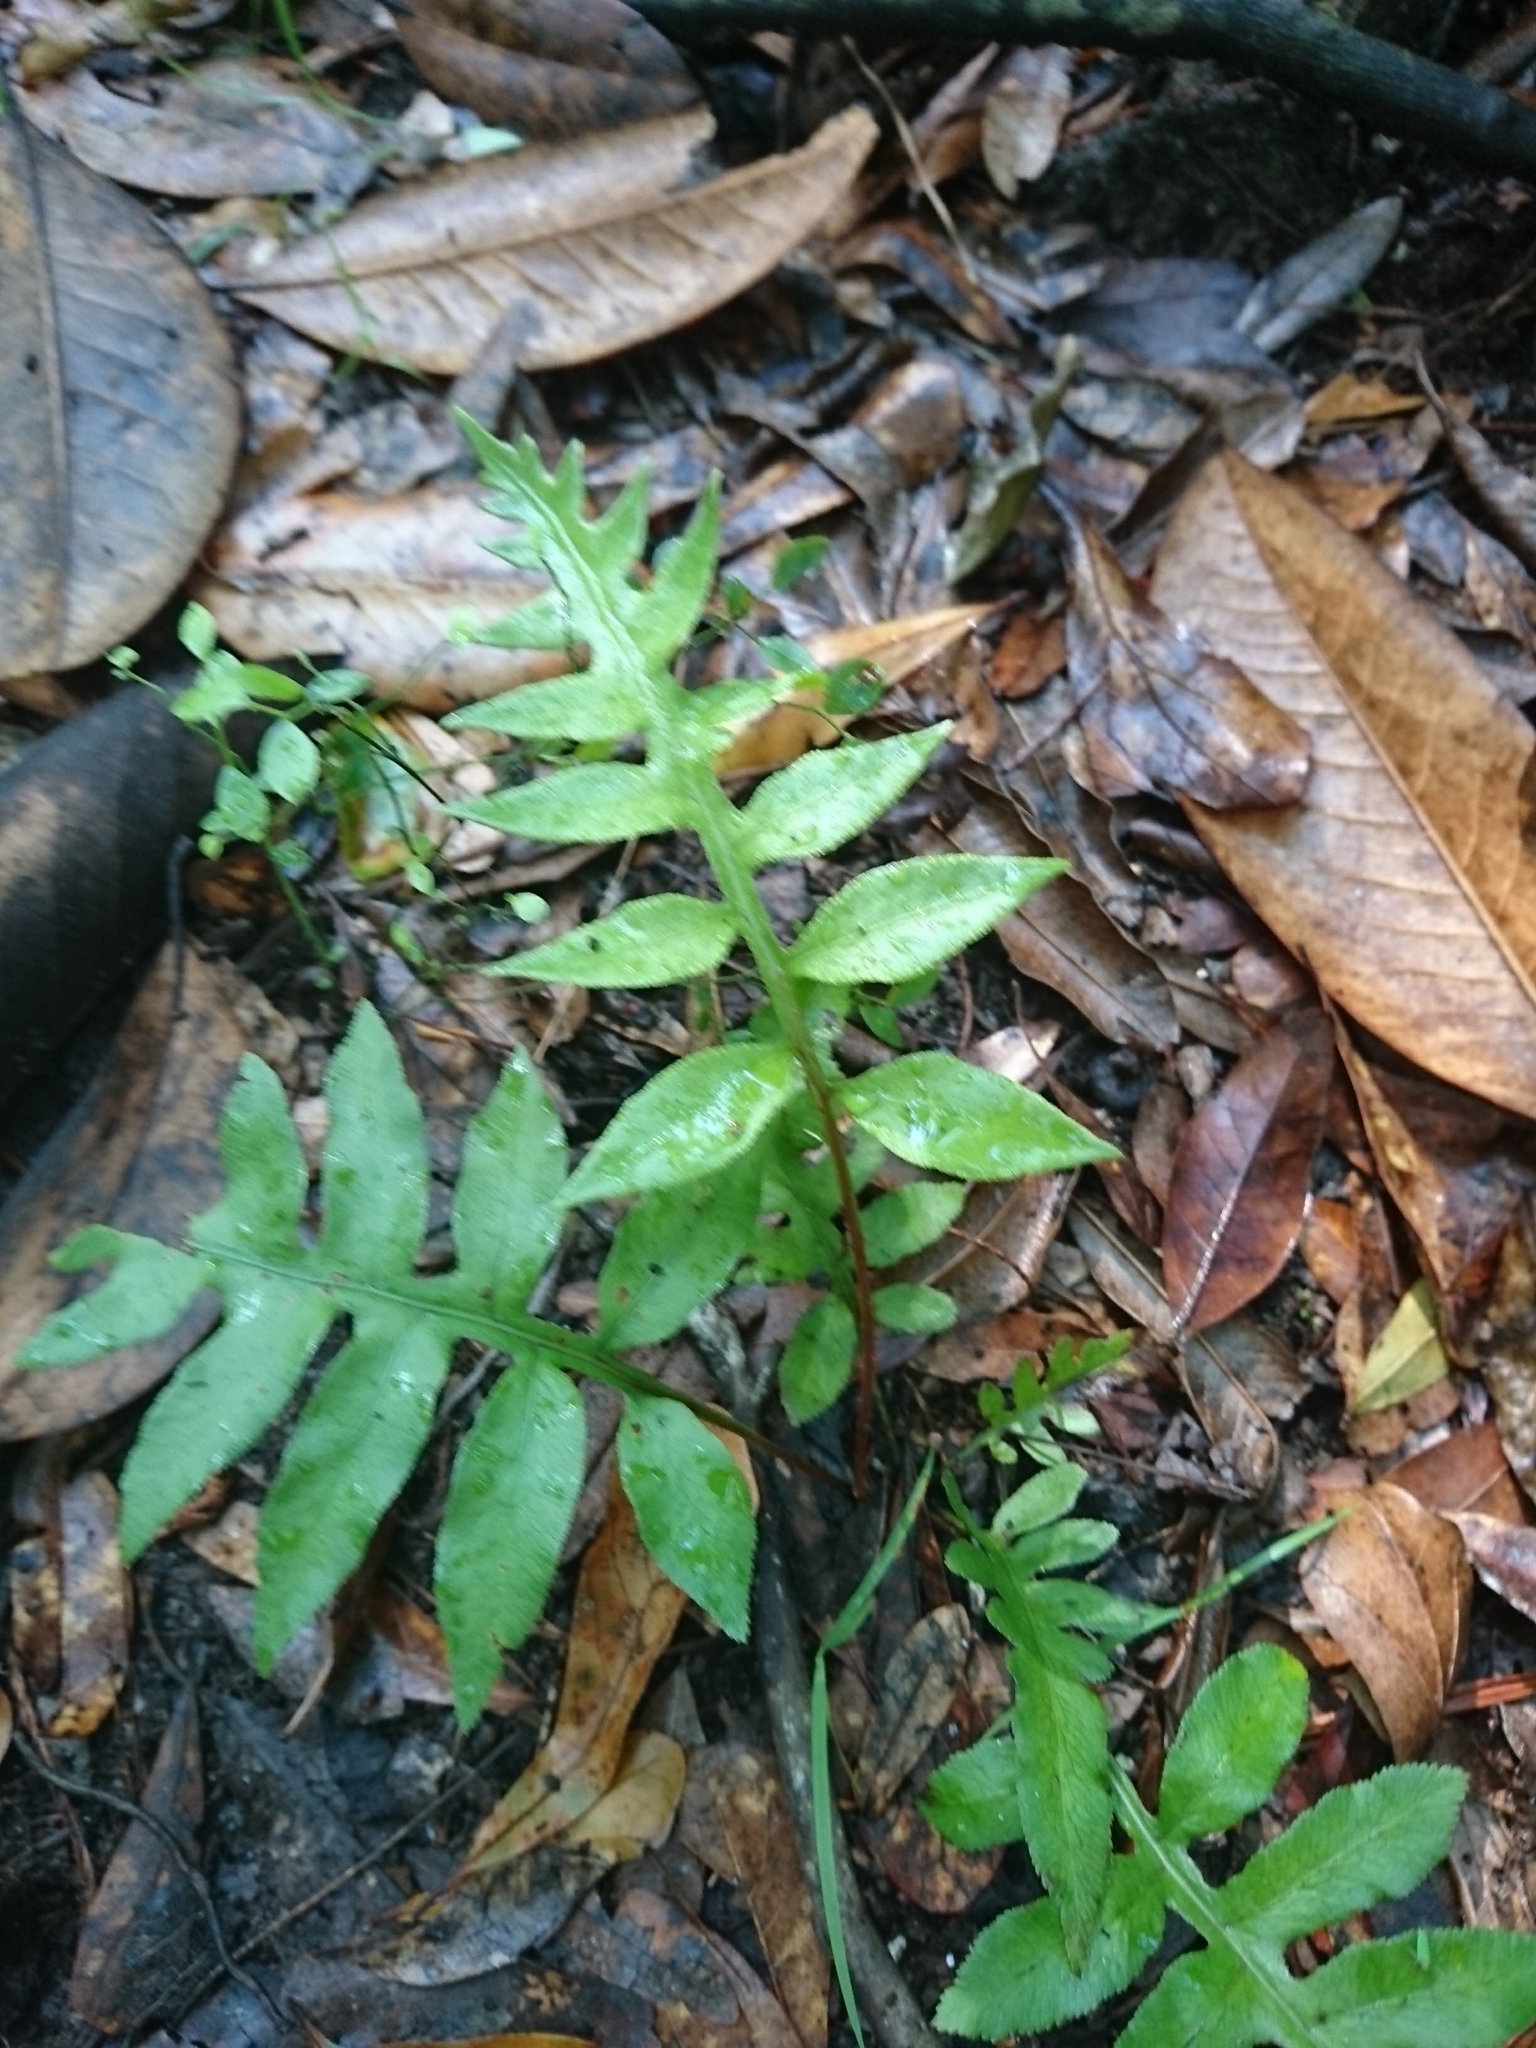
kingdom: Plantae
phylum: Tracheophyta
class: Polypodiopsida
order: Polypodiales
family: Blechnaceae
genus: Lorinseria
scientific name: Lorinseria areolata
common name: Dwarf chain fern
